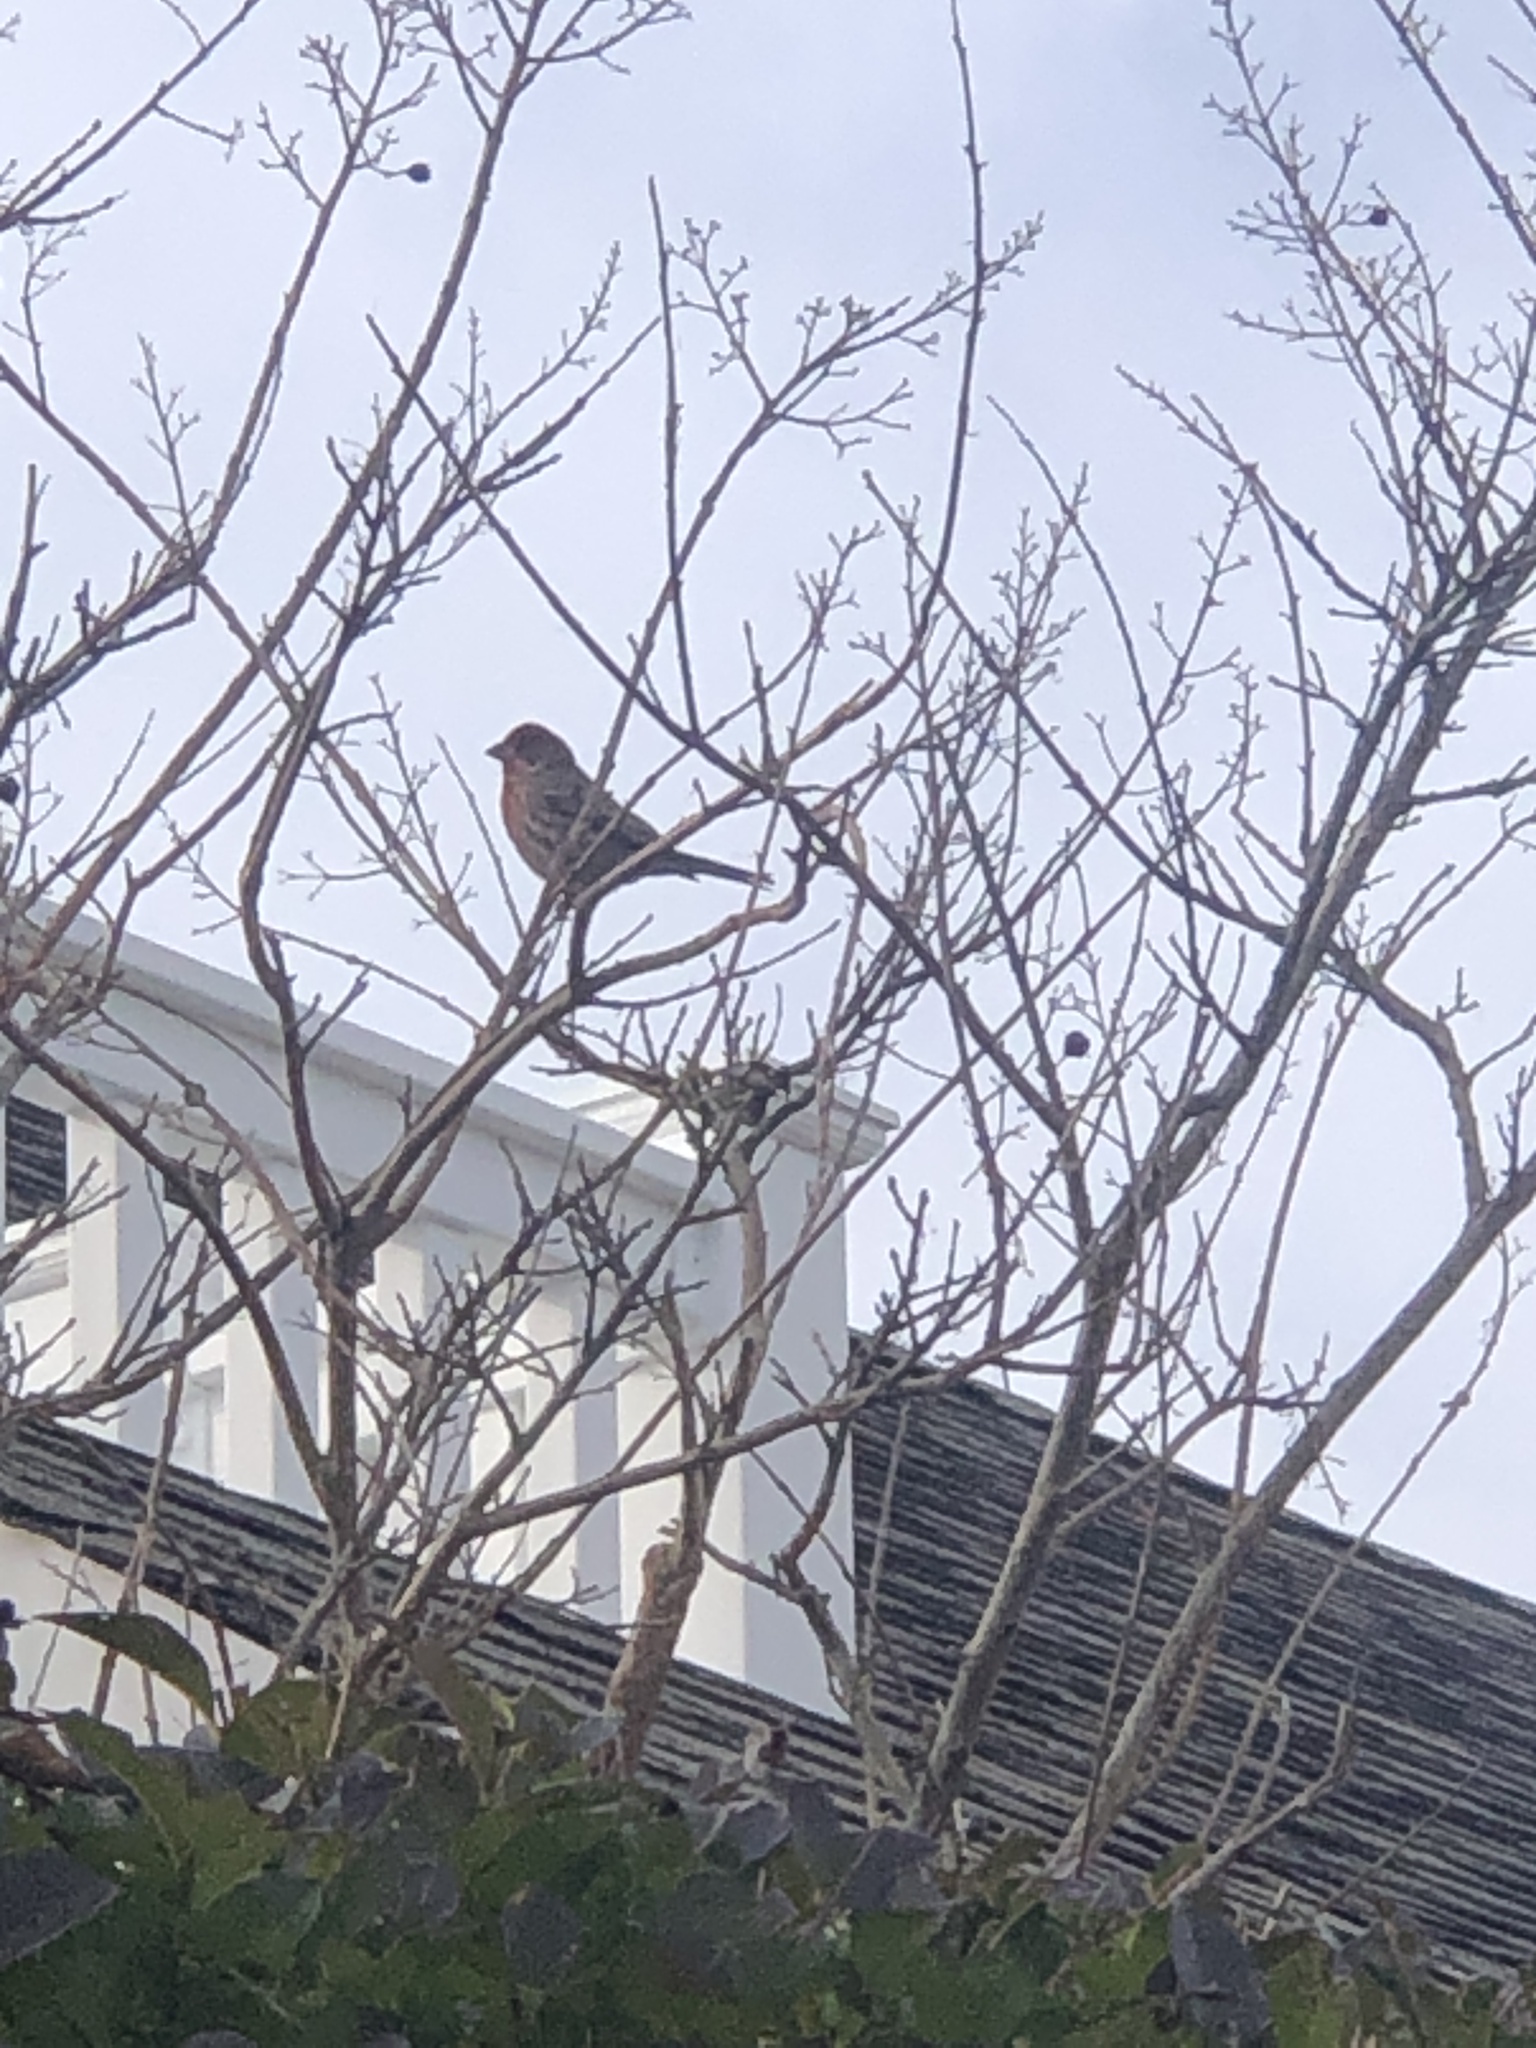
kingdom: Animalia
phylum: Chordata
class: Aves
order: Passeriformes
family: Fringillidae
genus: Haemorhous
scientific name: Haemorhous mexicanus
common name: House finch
